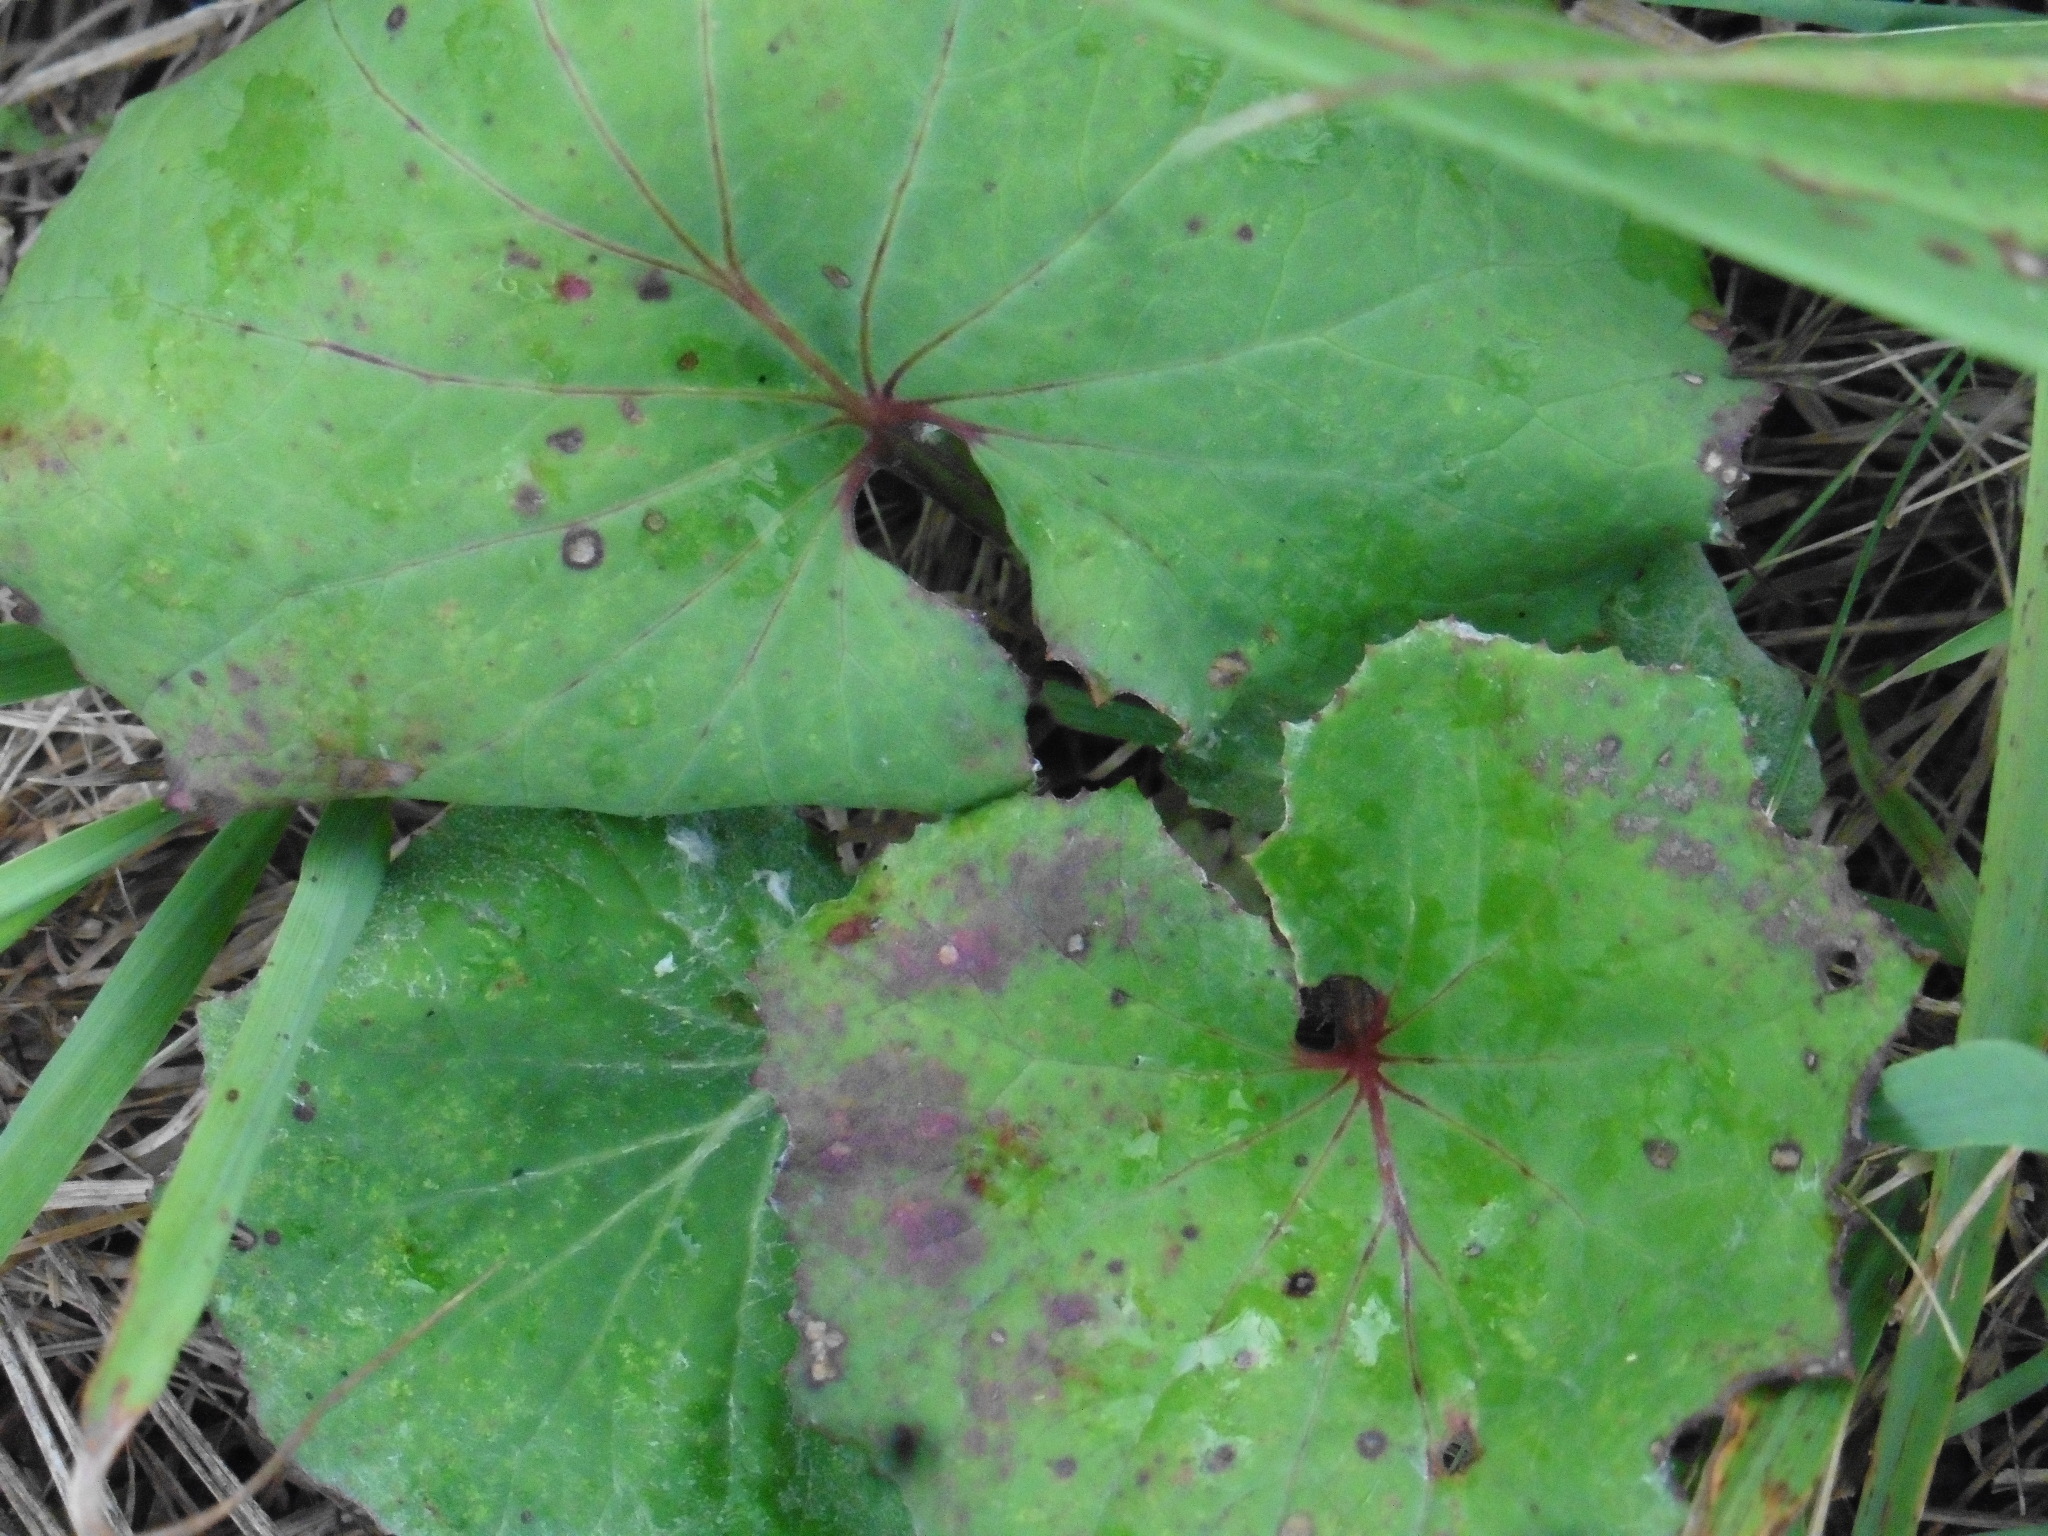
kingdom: Plantae
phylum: Tracheophyta
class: Magnoliopsida
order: Asterales
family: Asteraceae
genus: Tussilago
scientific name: Tussilago farfara
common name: Coltsfoot
